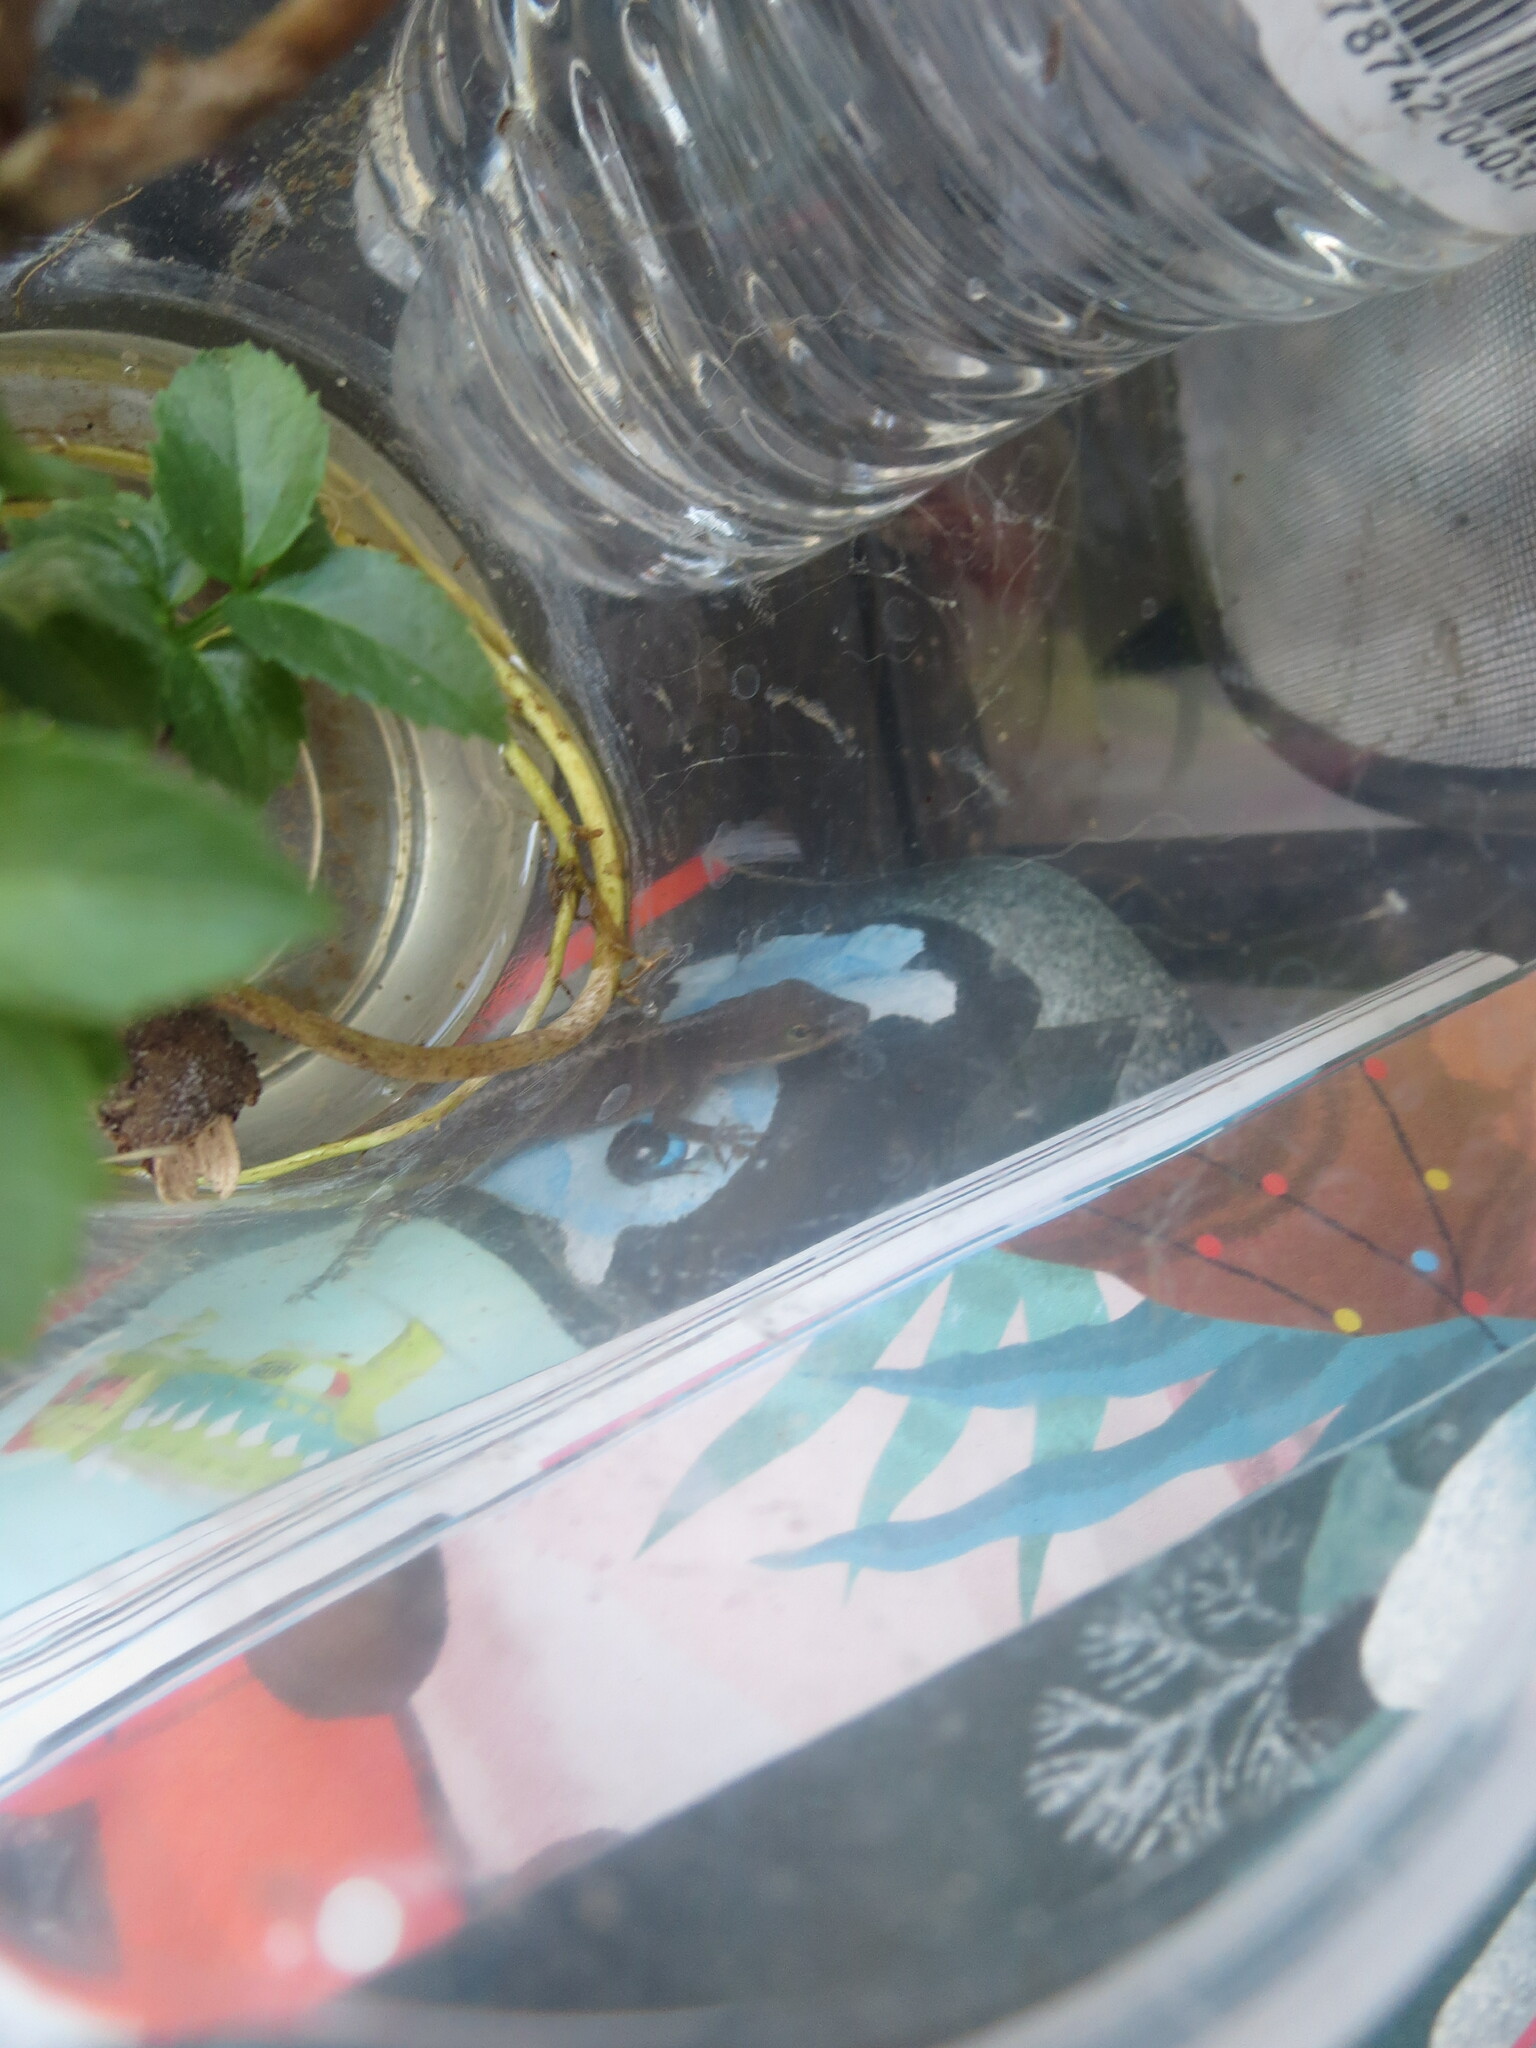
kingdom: Animalia
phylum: Chordata
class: Squamata
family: Dactyloidae
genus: Anolis
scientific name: Anolis carolinensis
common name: Green anole
